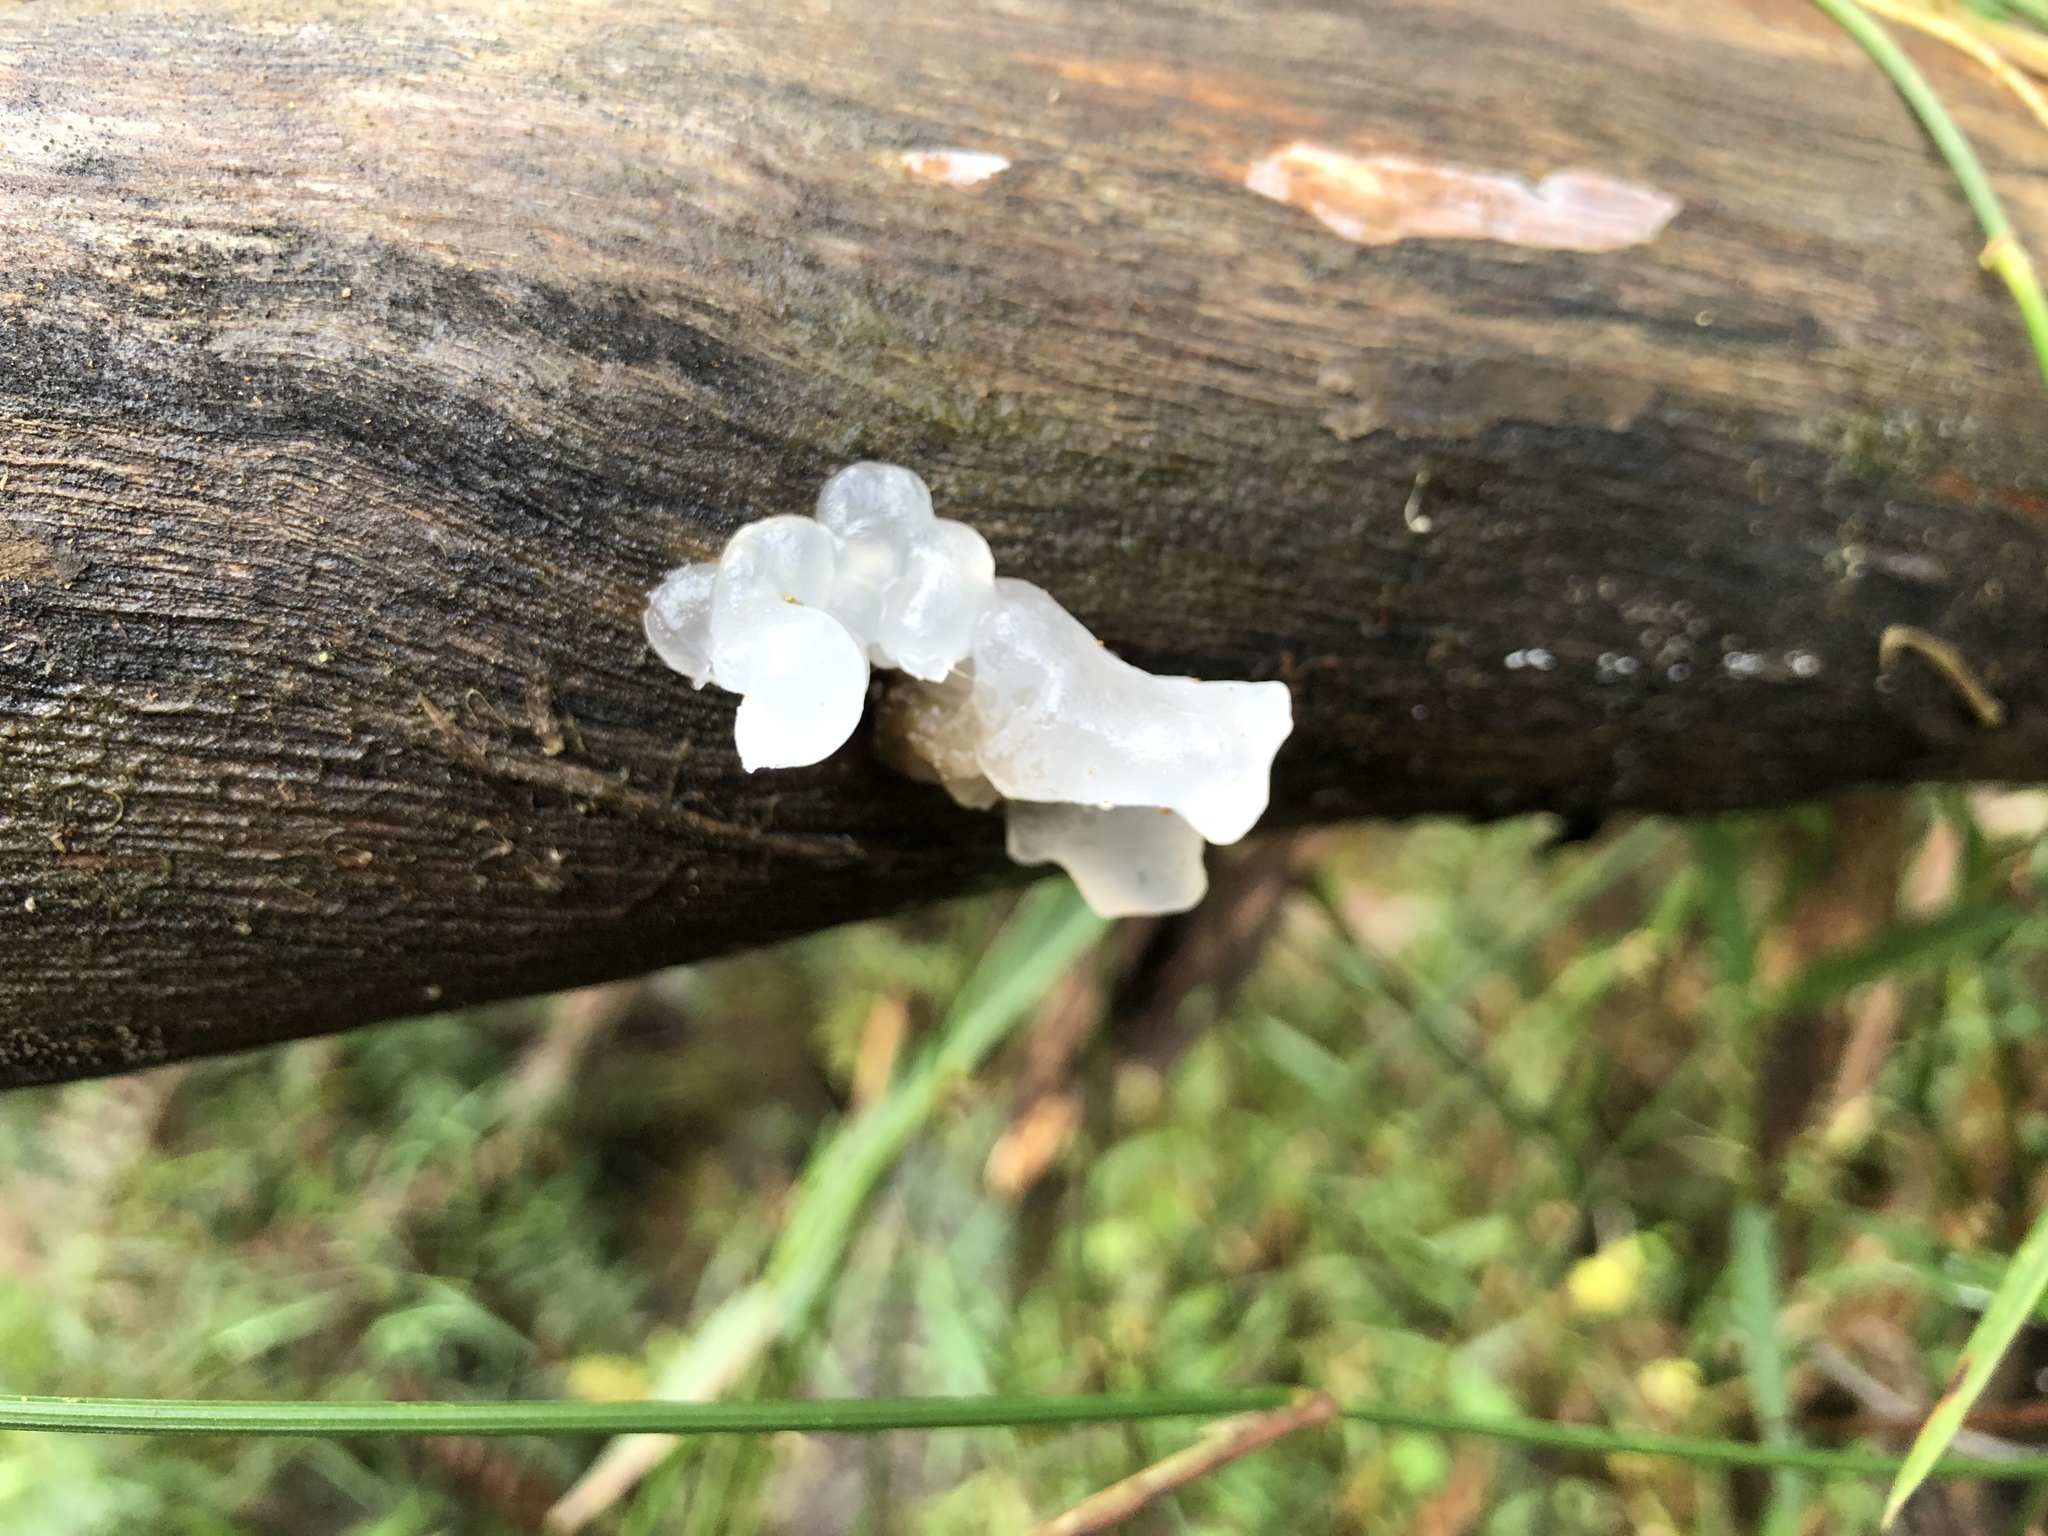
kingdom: Fungi
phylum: Basidiomycota
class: Tremellomycetes
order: Tremellales
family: Tremellaceae
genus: Tremella
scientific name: Tremella fuciformis
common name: Snow fungus
